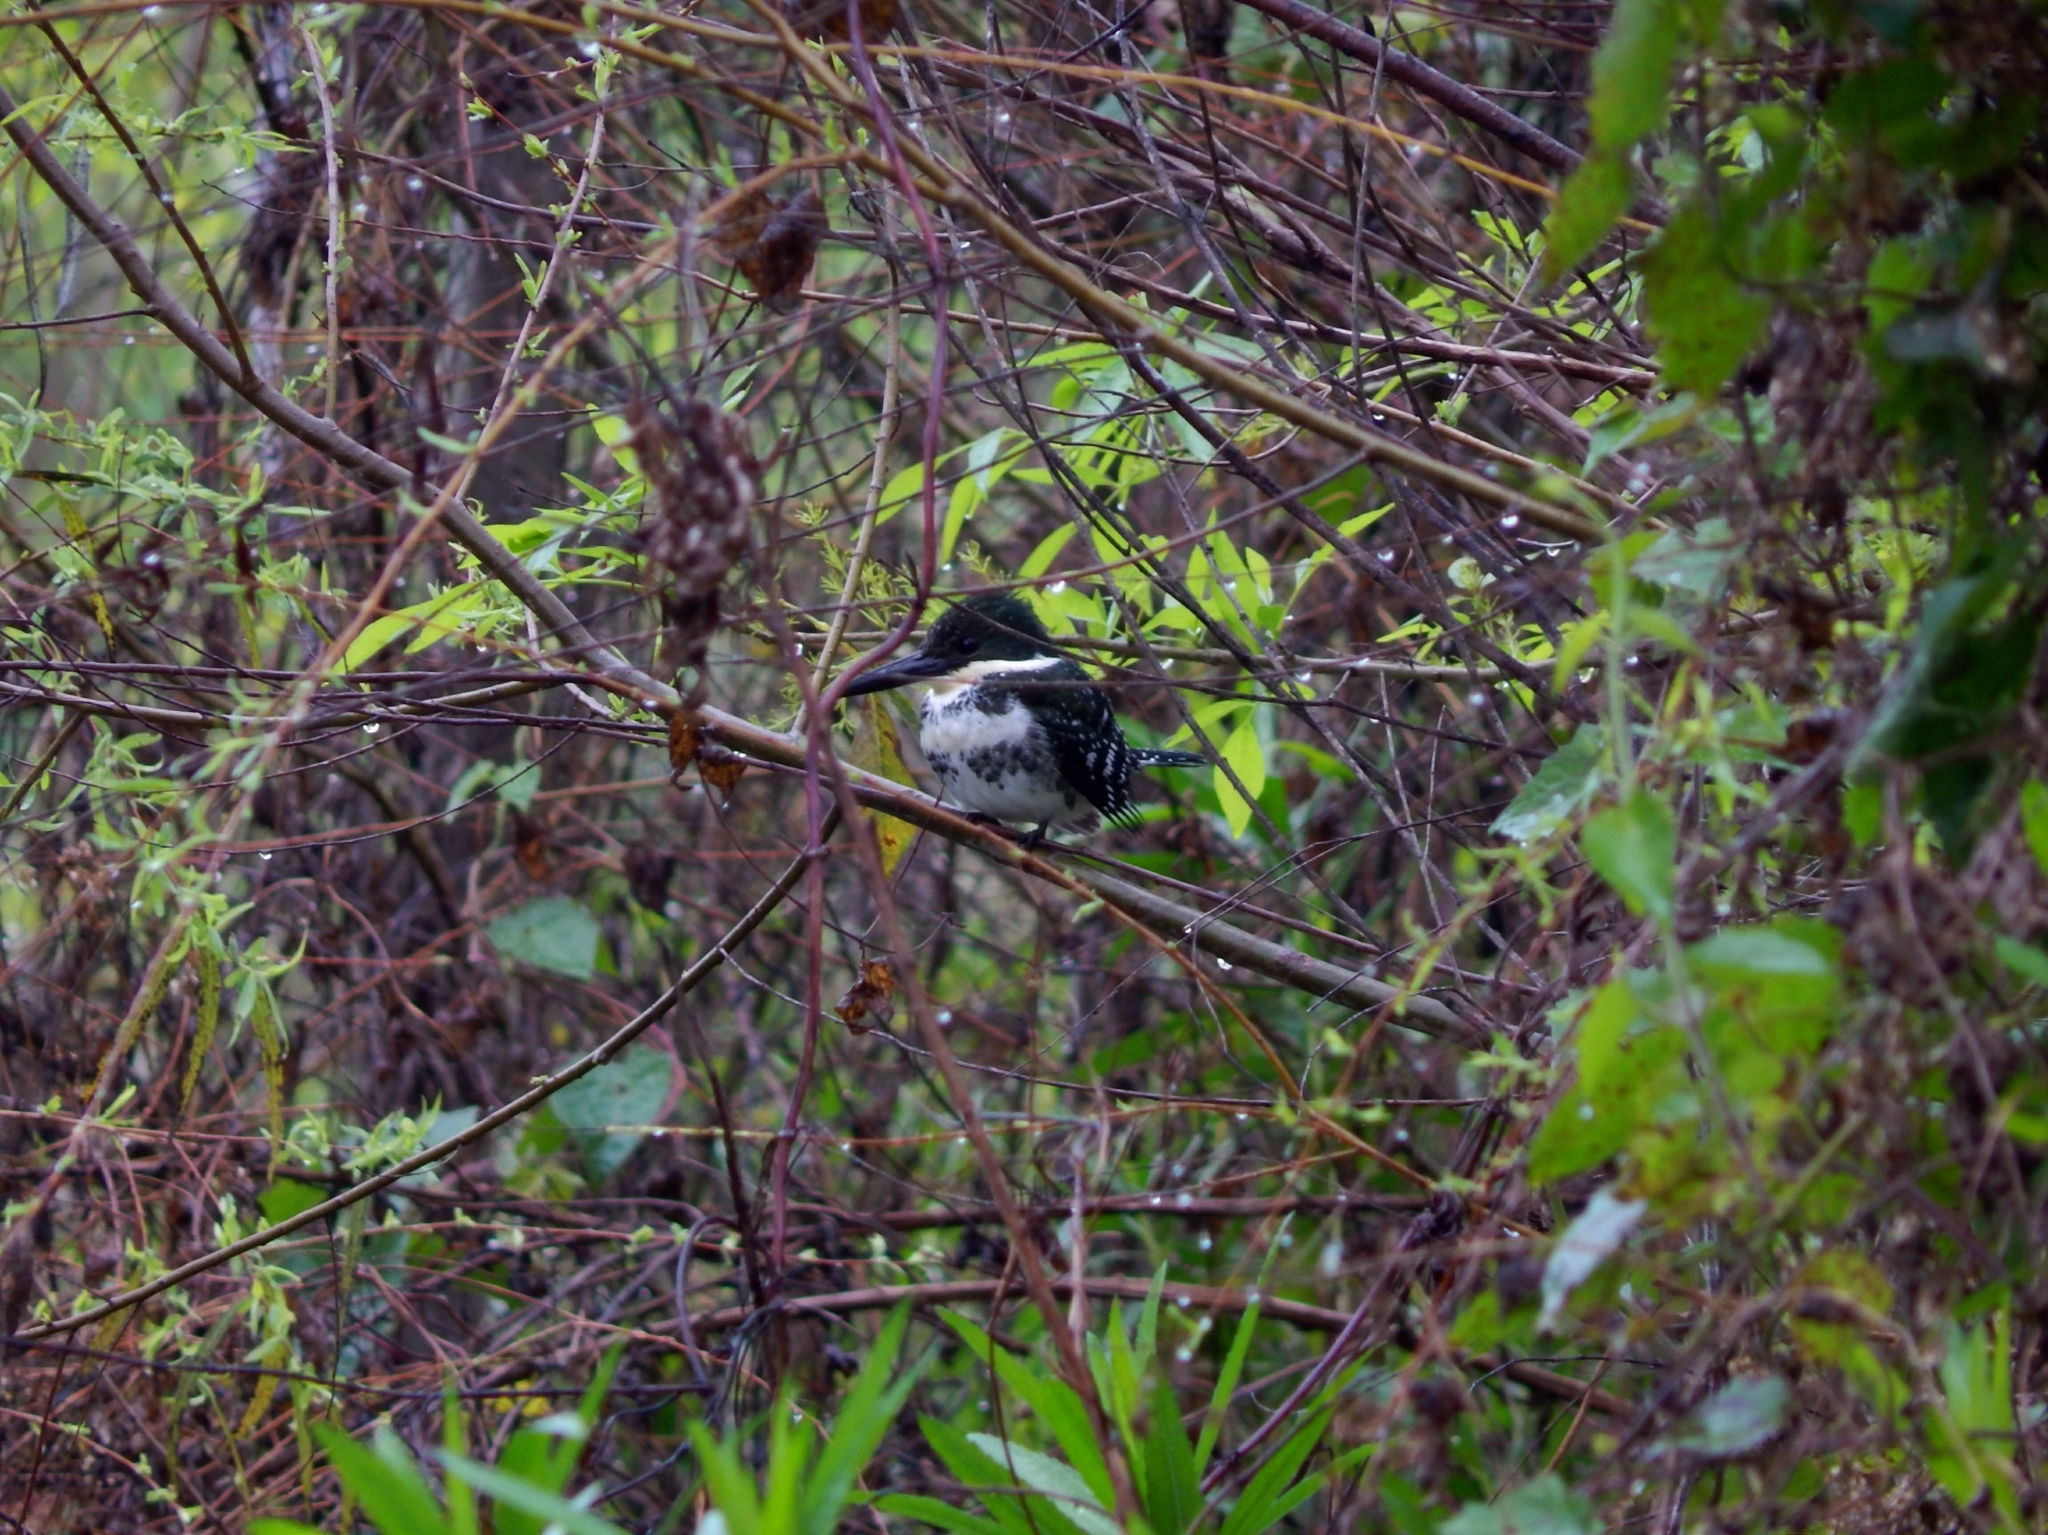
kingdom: Animalia
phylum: Chordata
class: Aves
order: Coraciiformes
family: Alcedinidae
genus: Chloroceryle
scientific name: Chloroceryle americana
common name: Green kingfisher
